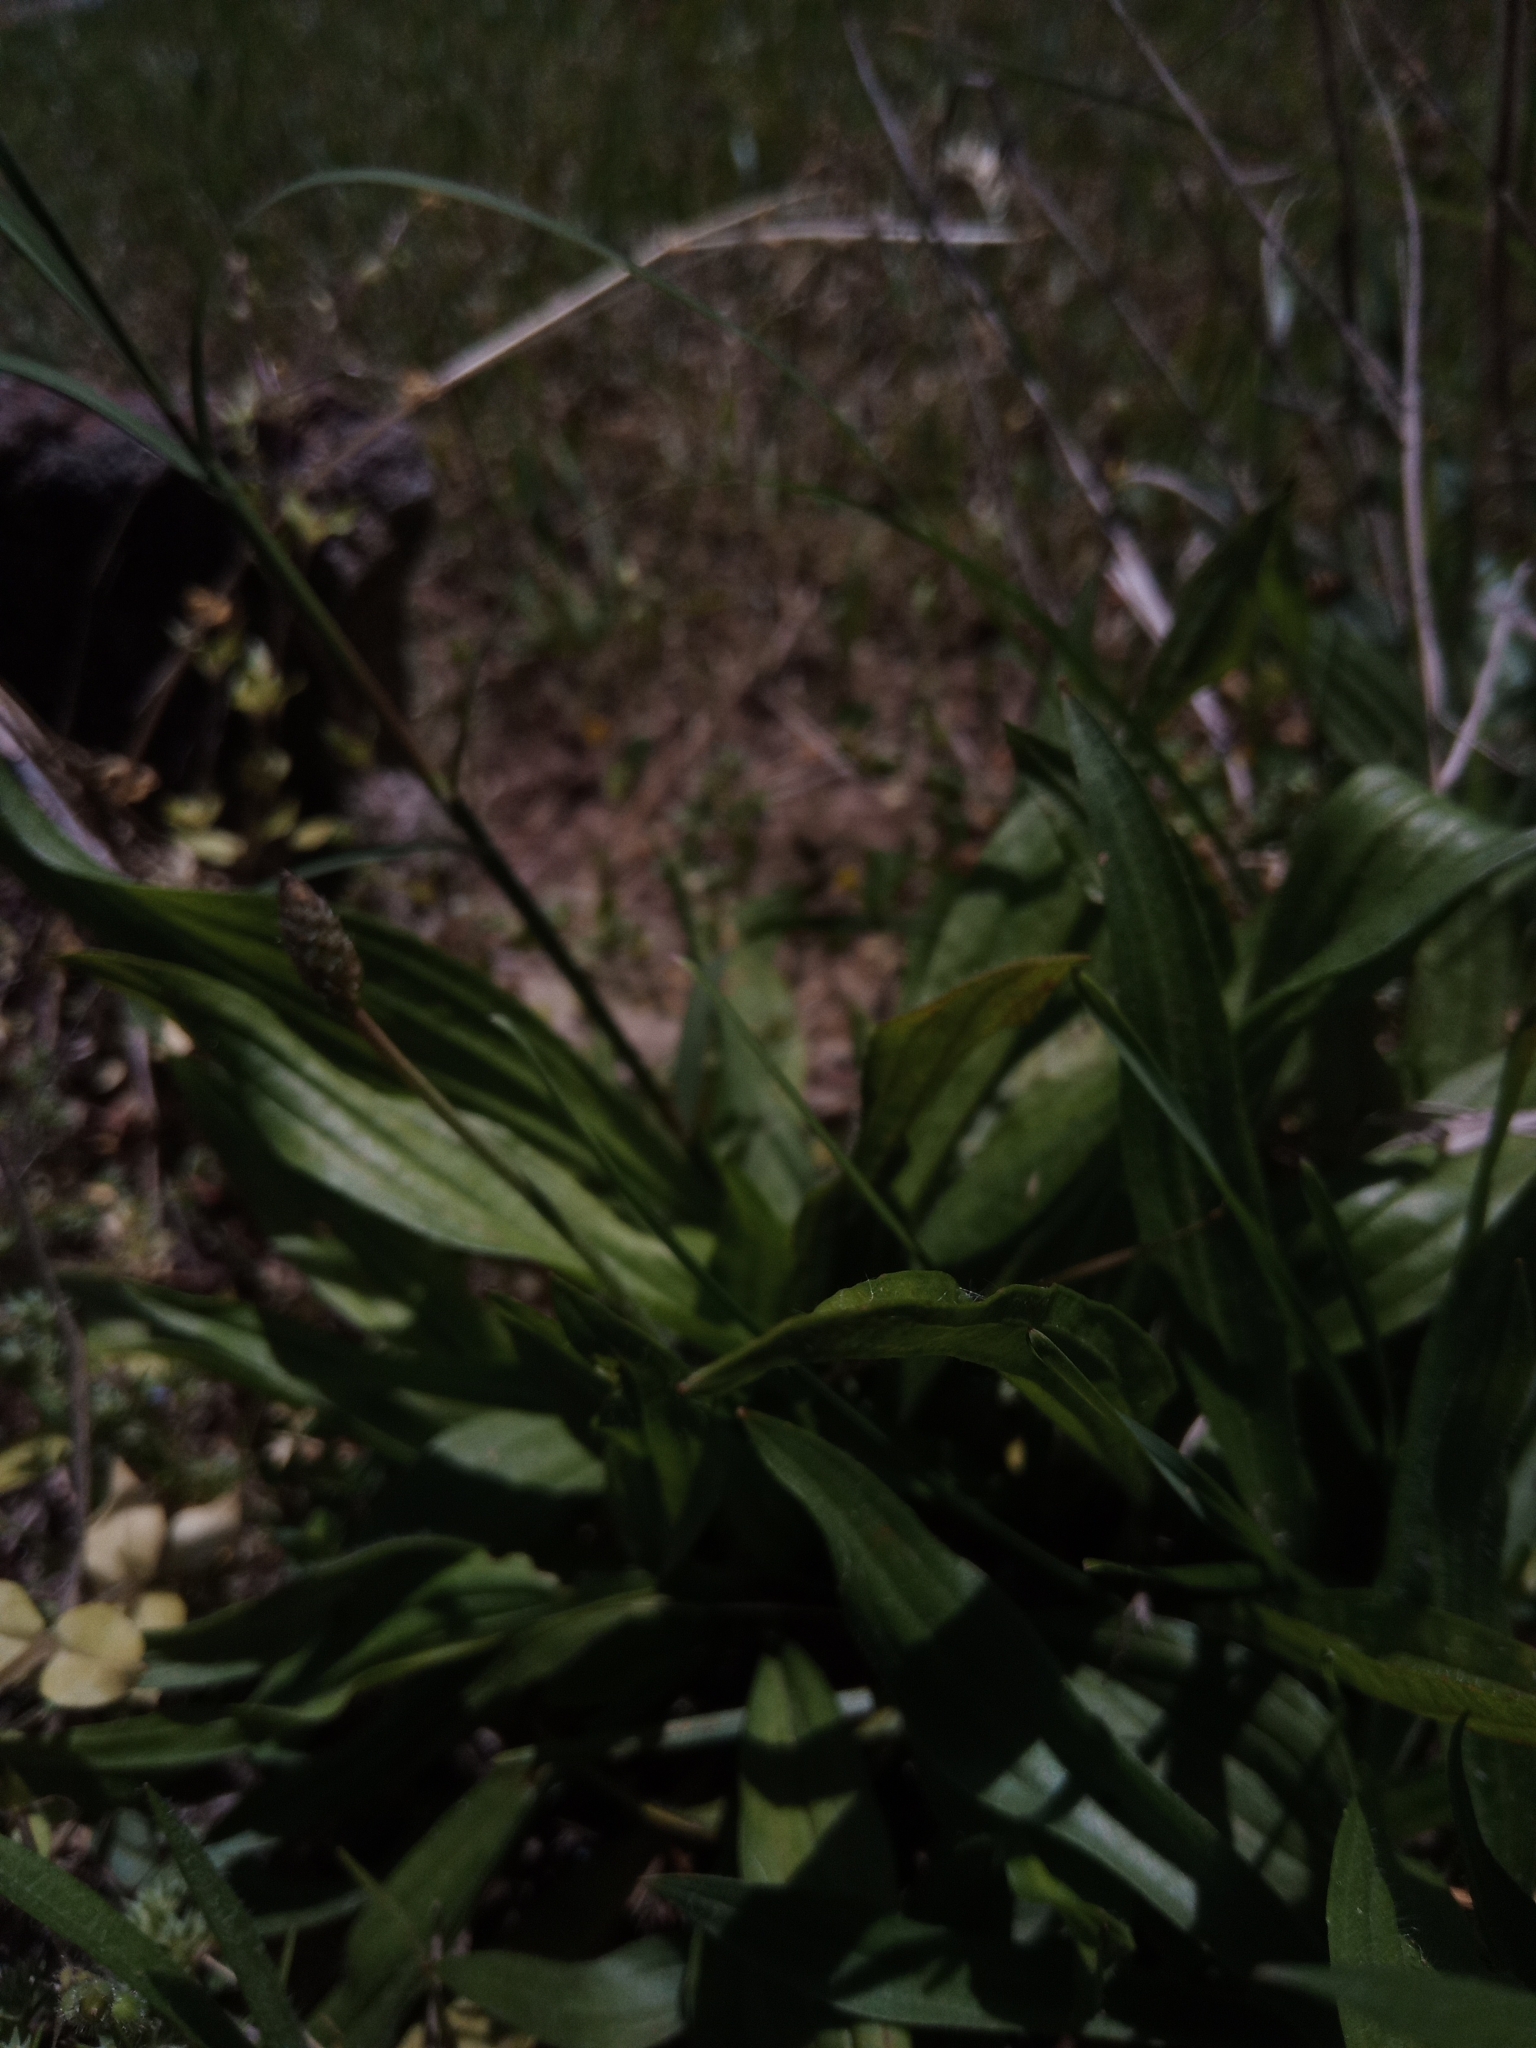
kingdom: Plantae
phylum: Tracheophyta
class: Magnoliopsida
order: Lamiales
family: Plantaginaceae
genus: Plantago
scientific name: Plantago lanceolata
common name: Ribwort plantain
